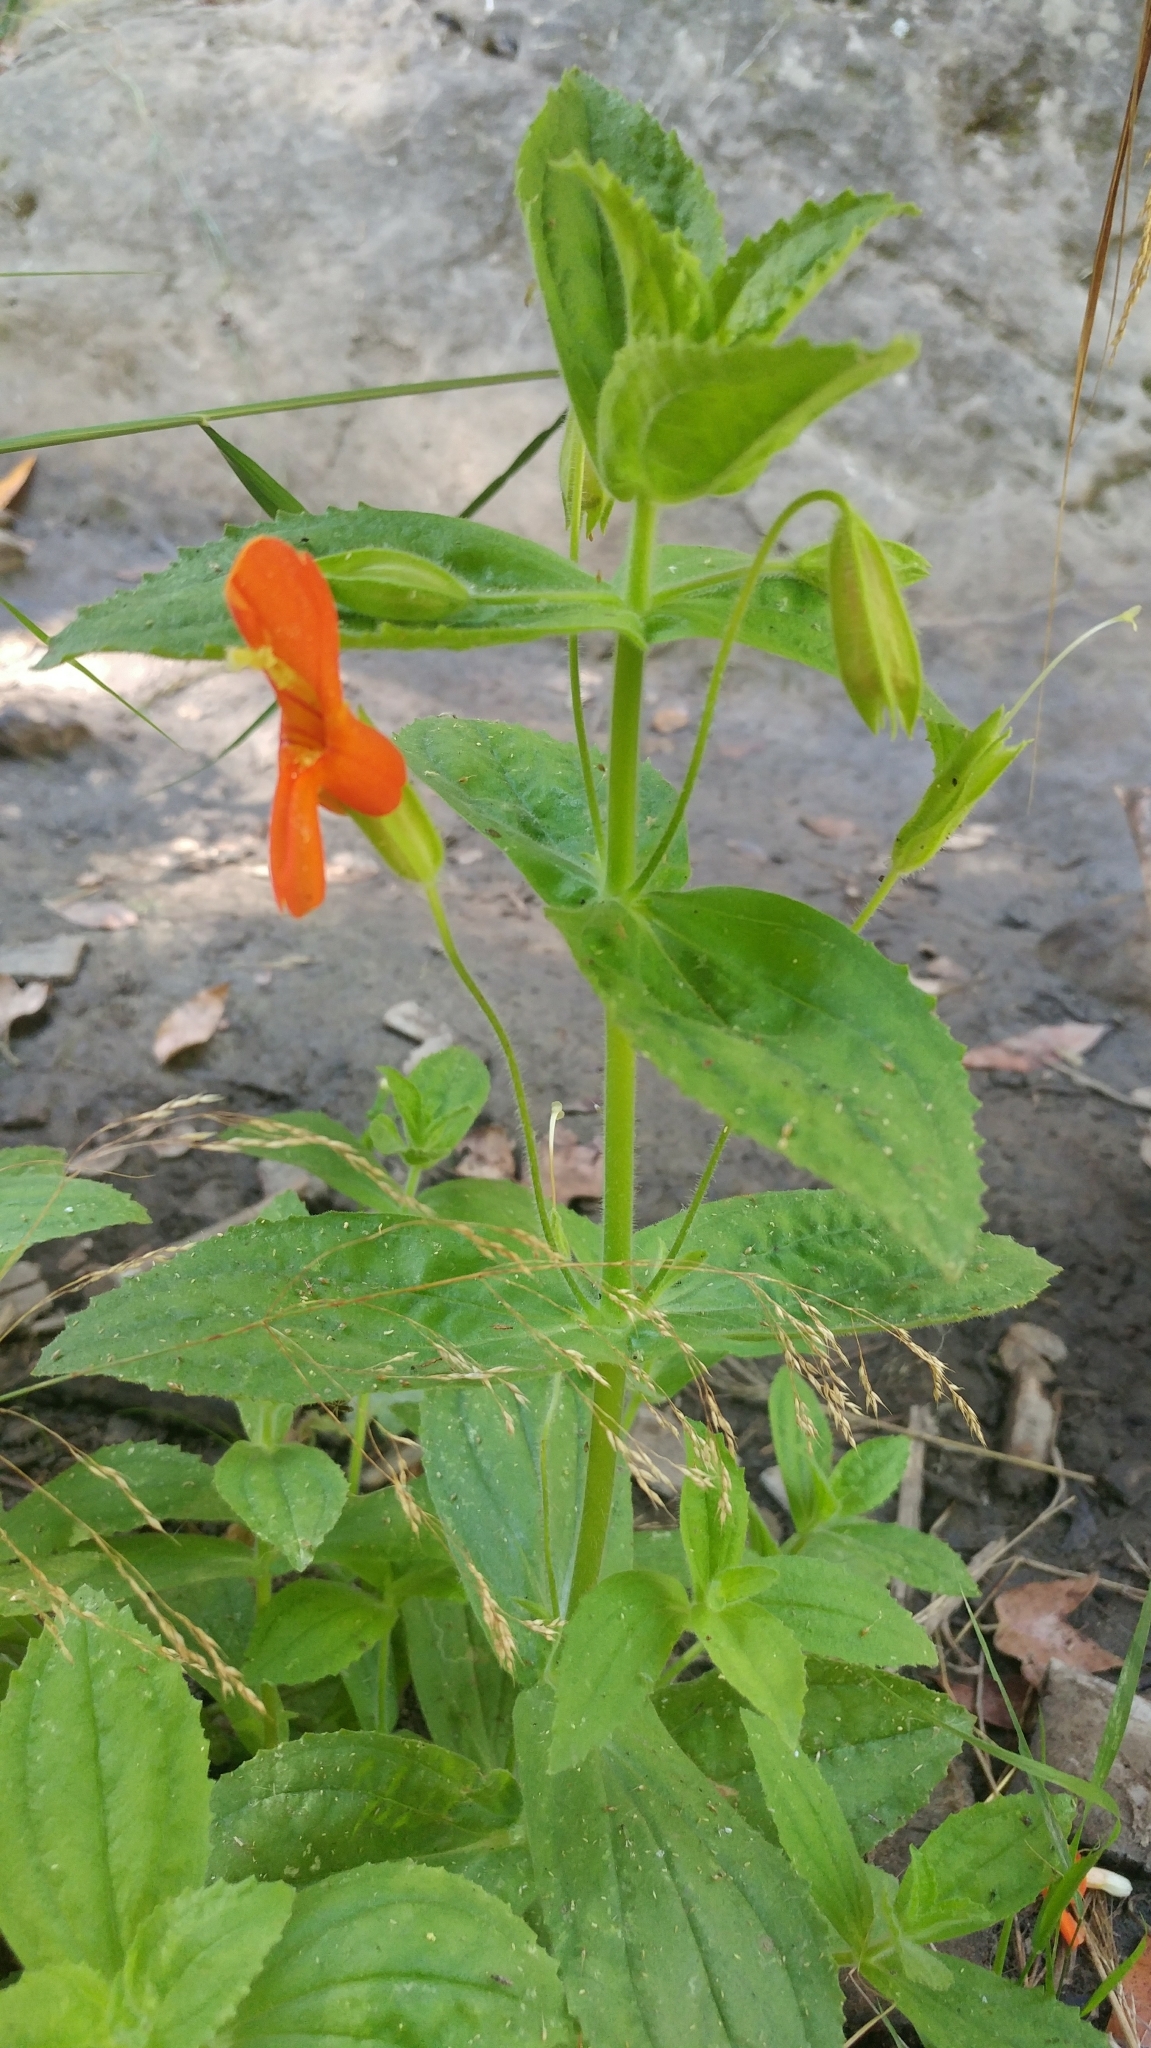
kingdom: Plantae
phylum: Tracheophyta
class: Magnoliopsida
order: Lamiales
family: Phrymaceae
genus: Erythranthe
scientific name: Erythranthe cardinalis
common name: Scarlet monkey-flower
